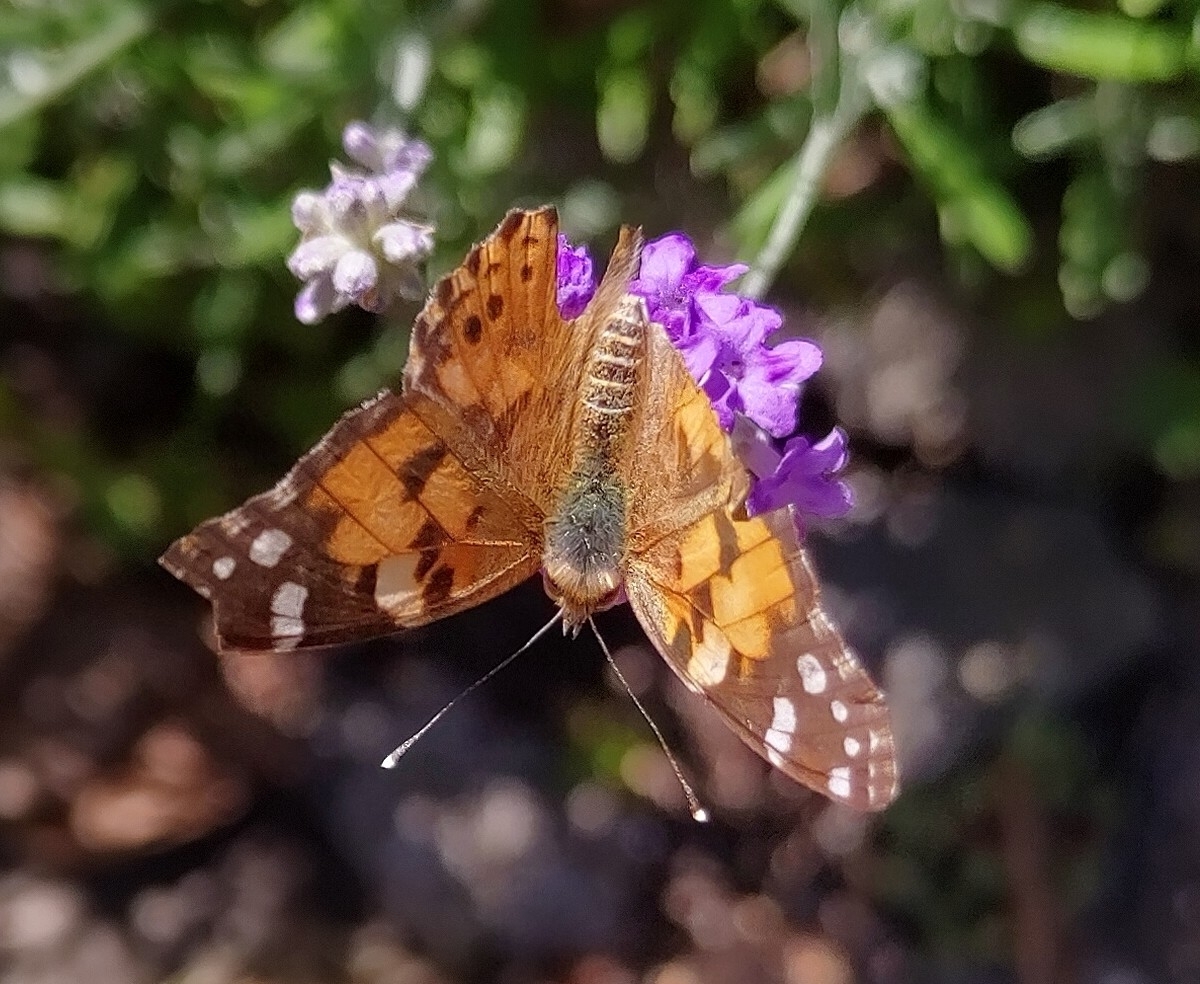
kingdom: Animalia
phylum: Arthropoda
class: Insecta
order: Lepidoptera
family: Nymphalidae
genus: Vanessa
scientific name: Vanessa cardui
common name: Painted lady
